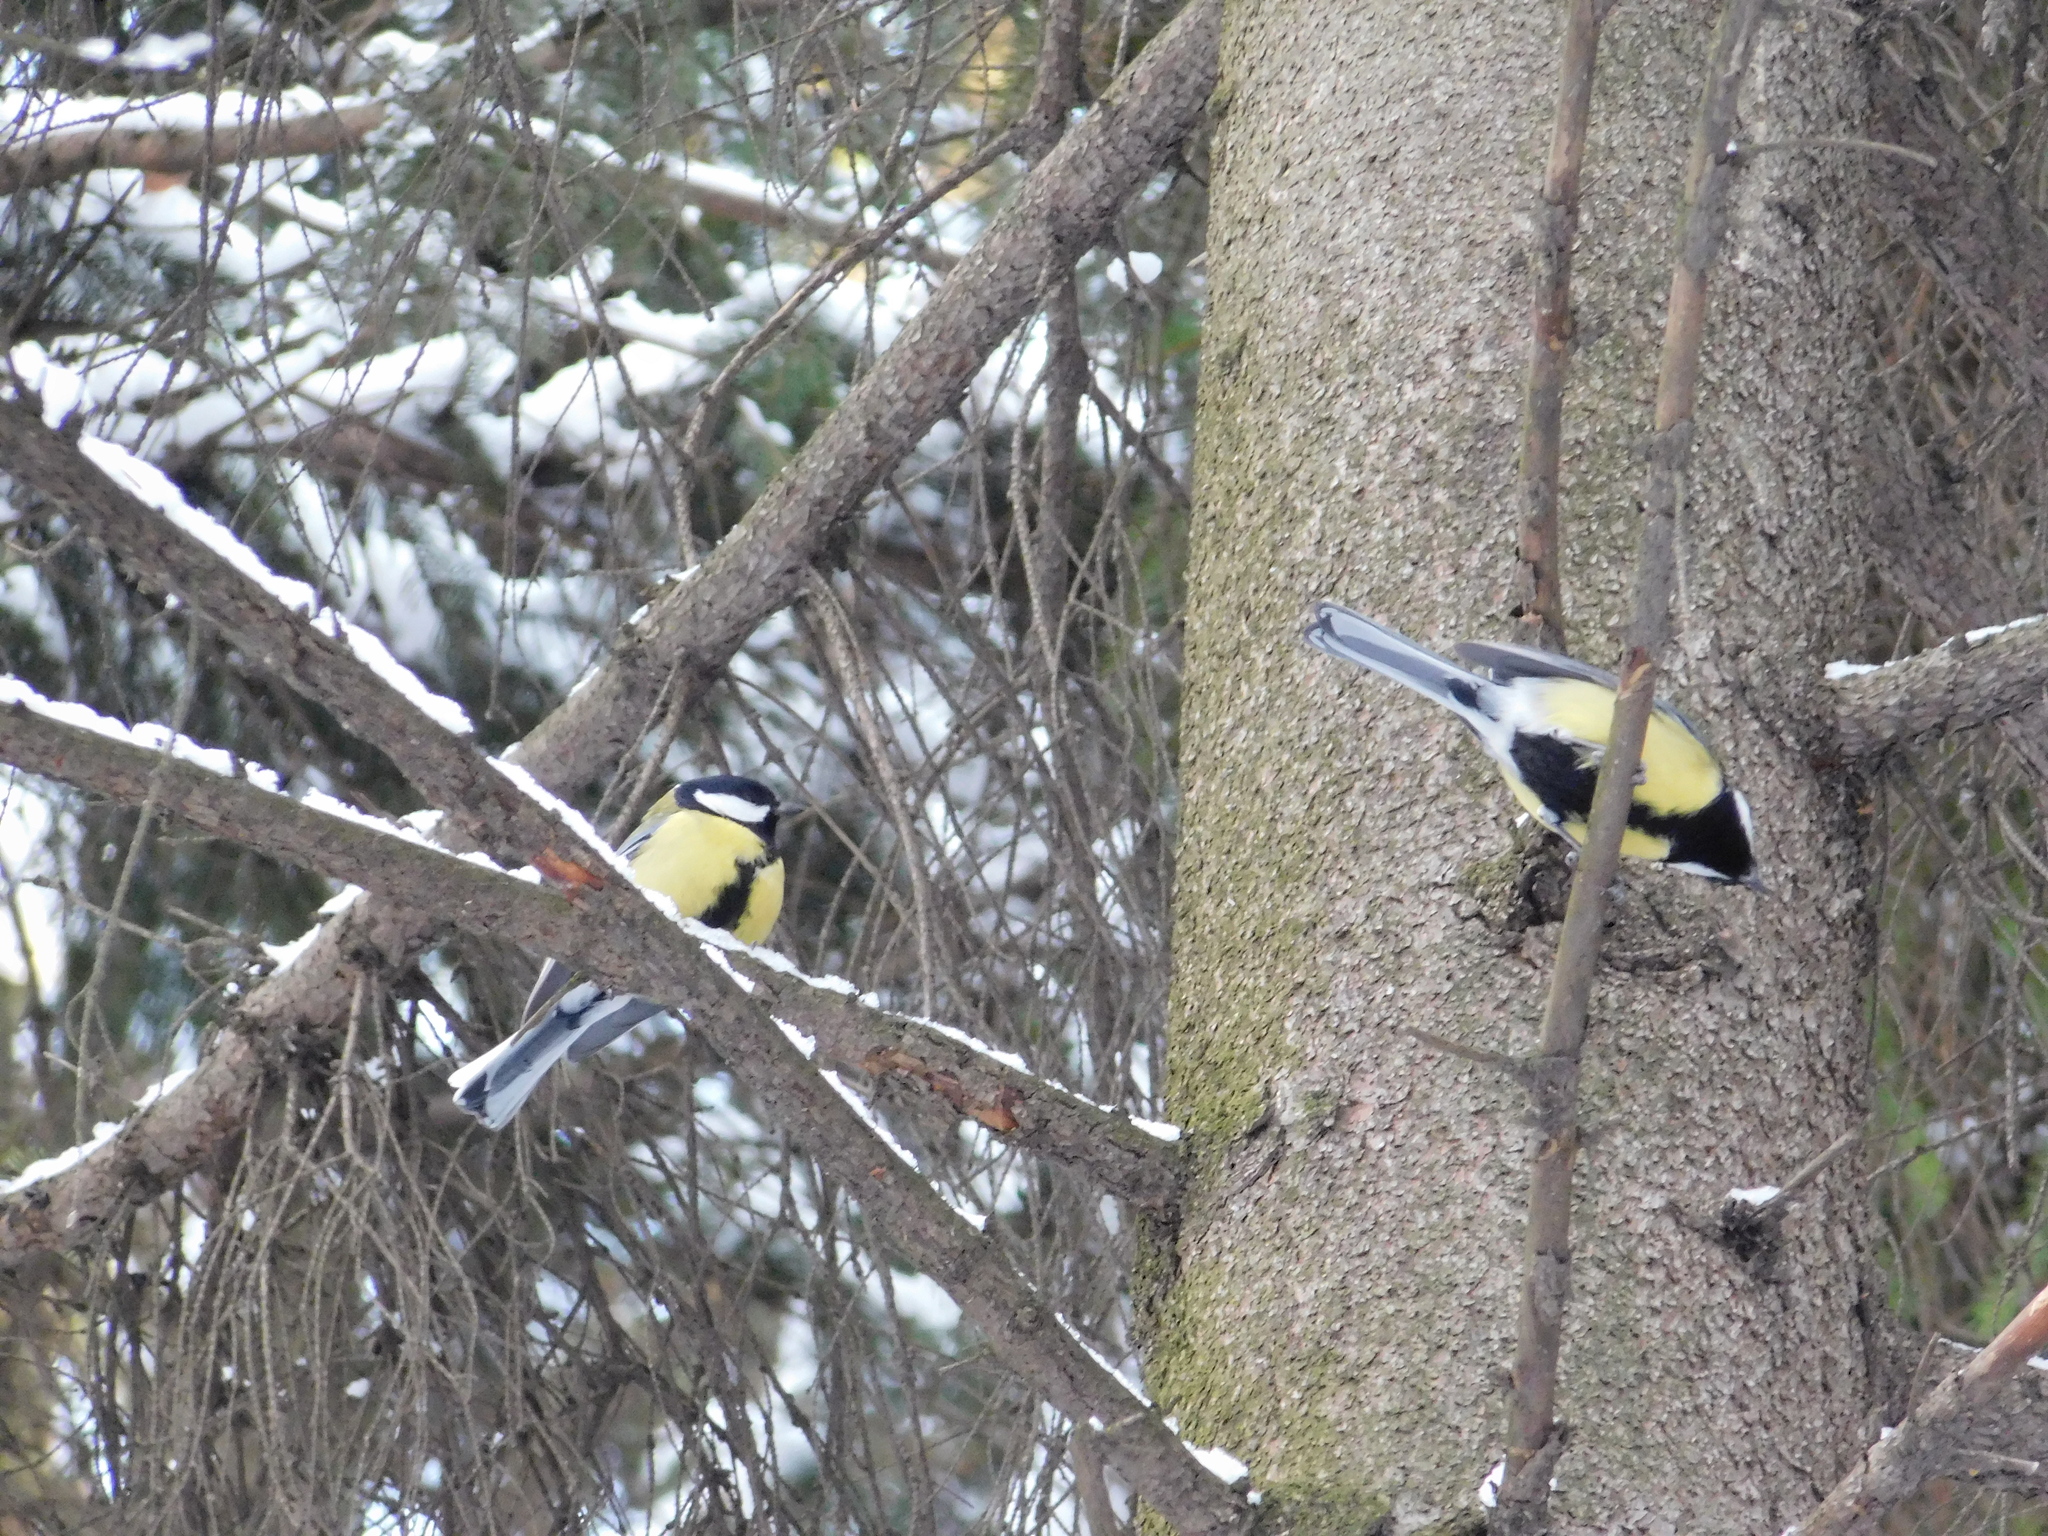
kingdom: Animalia
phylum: Chordata
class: Aves
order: Passeriformes
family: Paridae
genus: Parus
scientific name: Parus major
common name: Great tit
